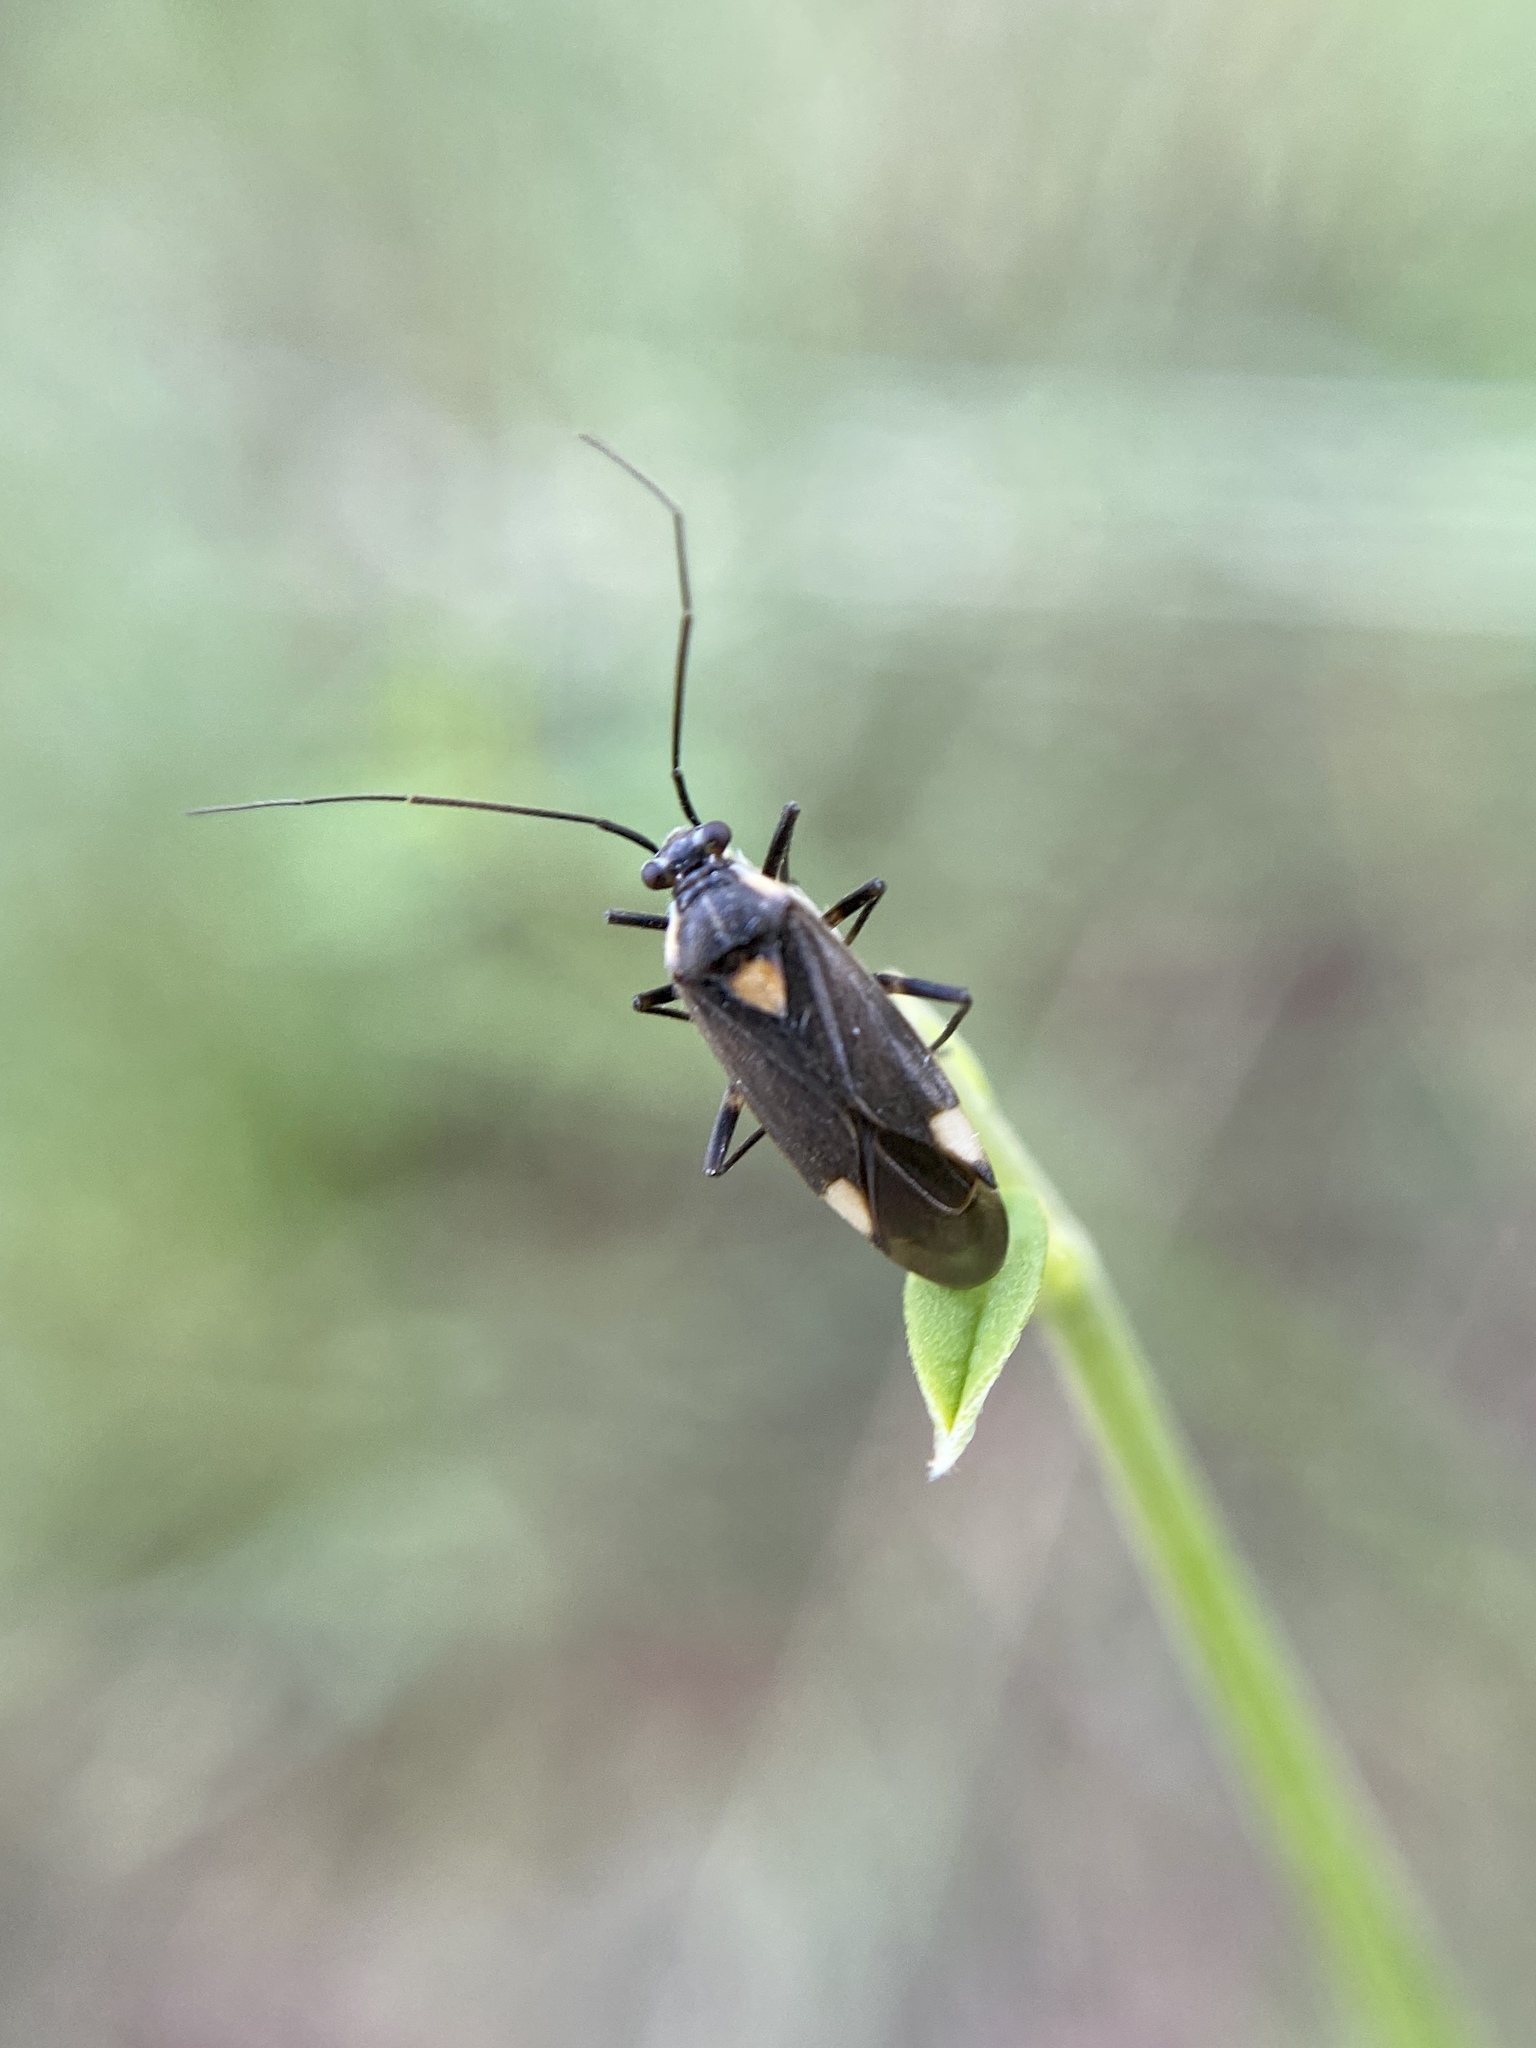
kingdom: Animalia
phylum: Arthropoda
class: Insecta
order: Hemiptera
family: Miridae
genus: Capsodes
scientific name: Capsodes flavomarginatus
